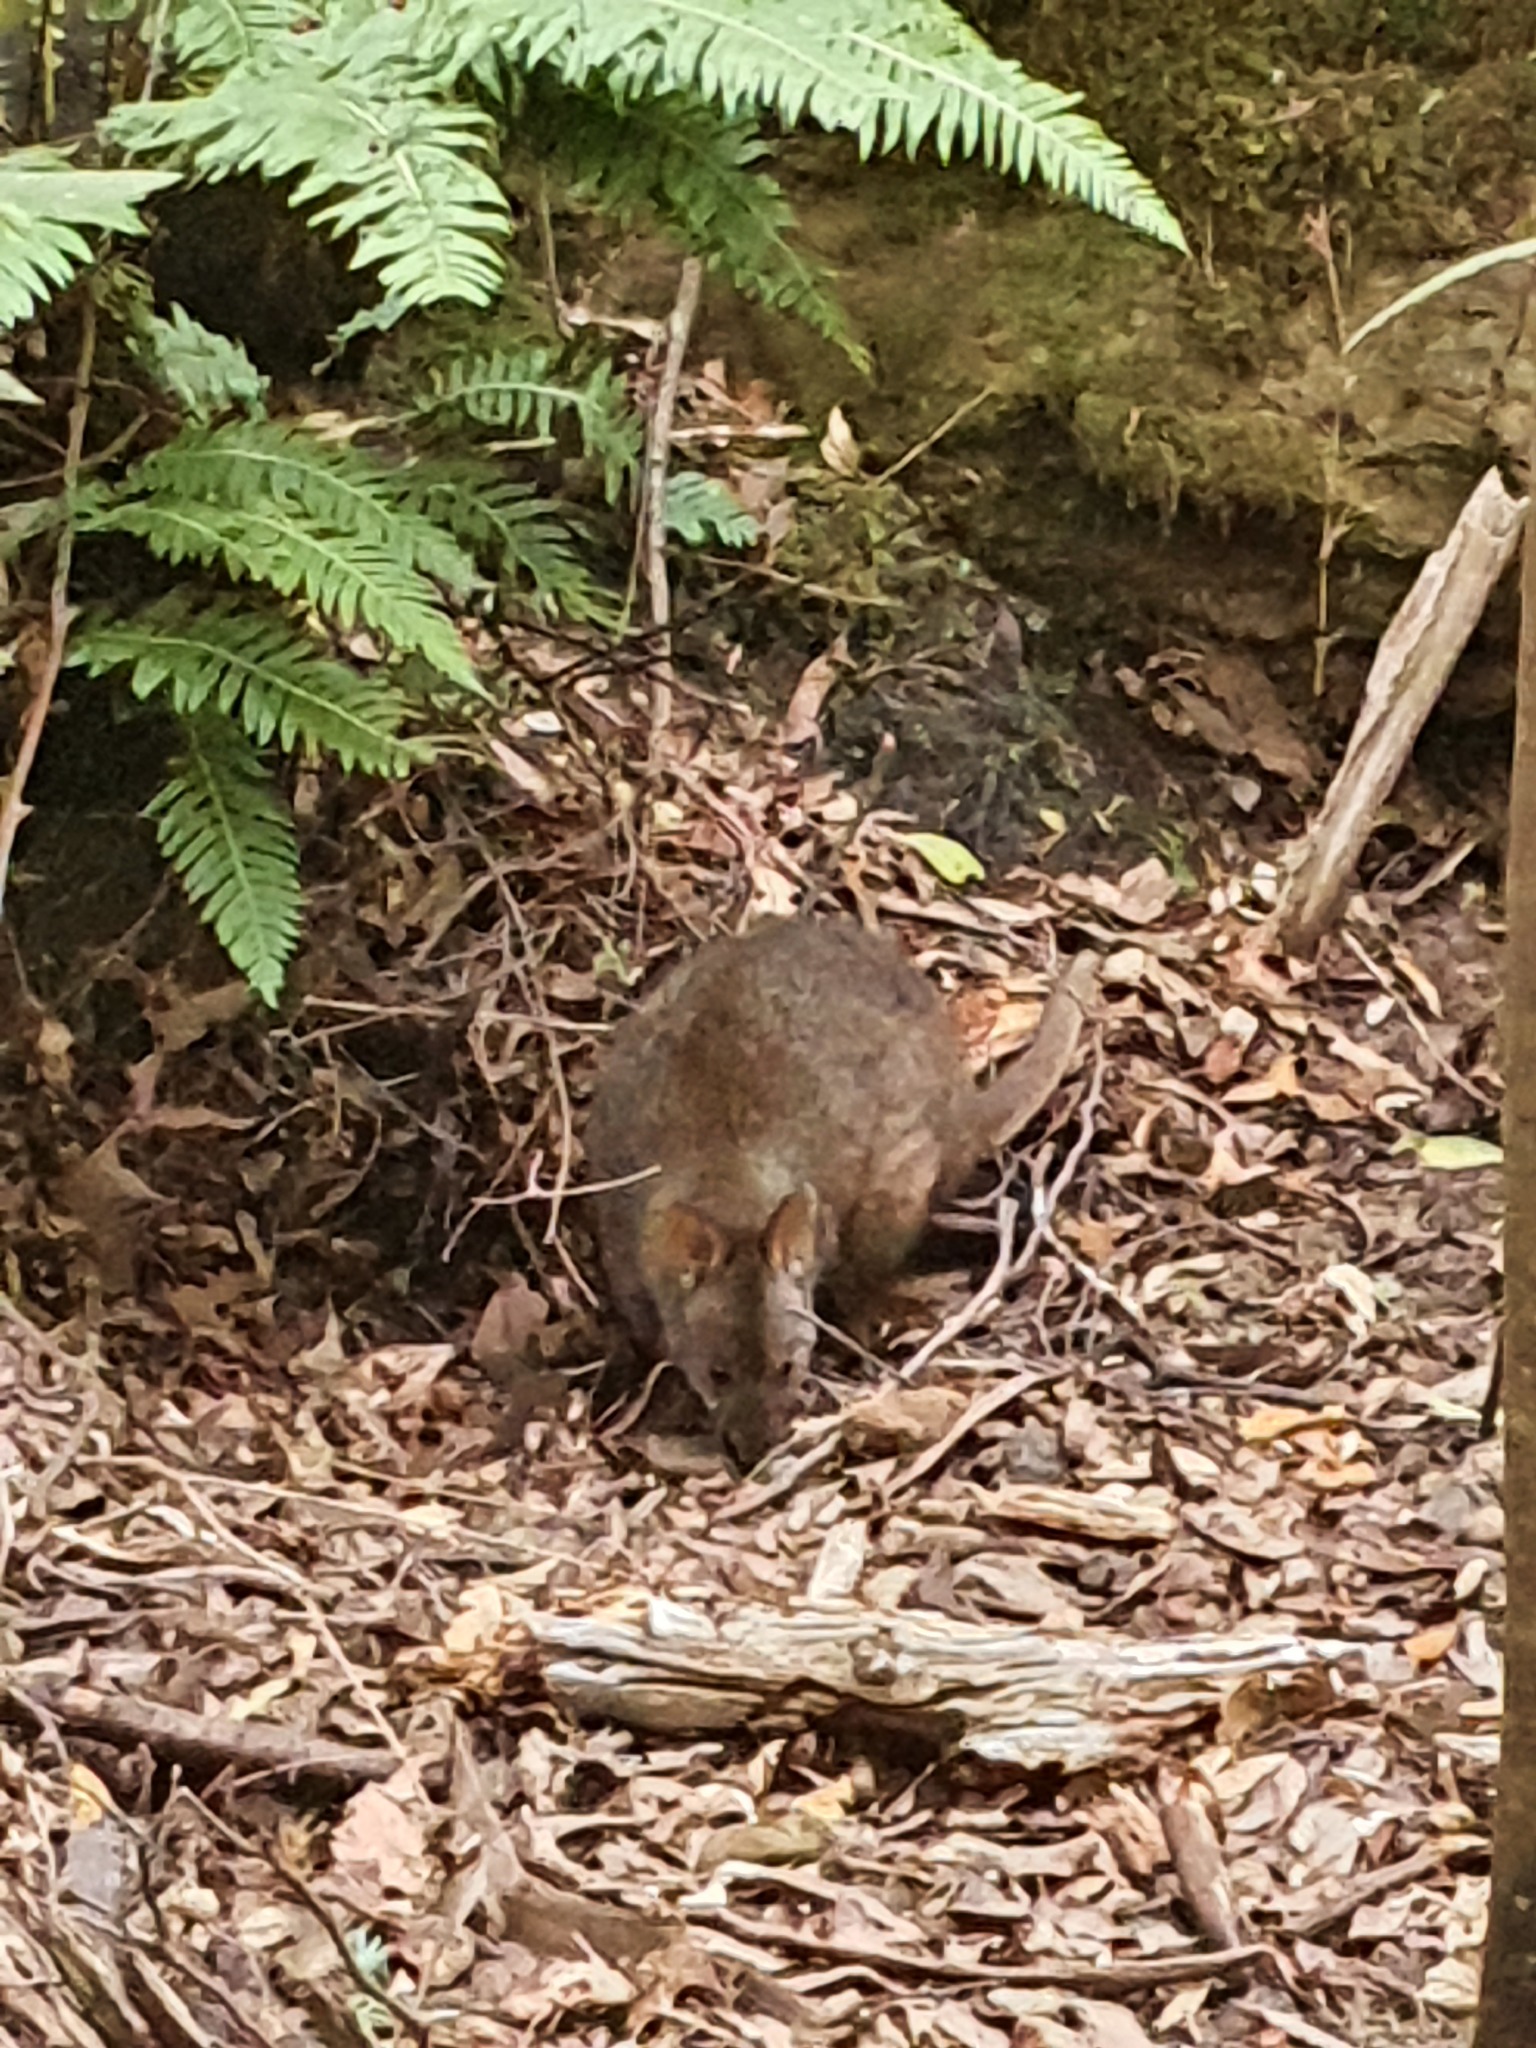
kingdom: Animalia
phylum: Chordata
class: Mammalia
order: Diprotodontia
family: Macropodidae
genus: Thylogale
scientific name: Thylogale billardierii
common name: Tasmanian pademelon
